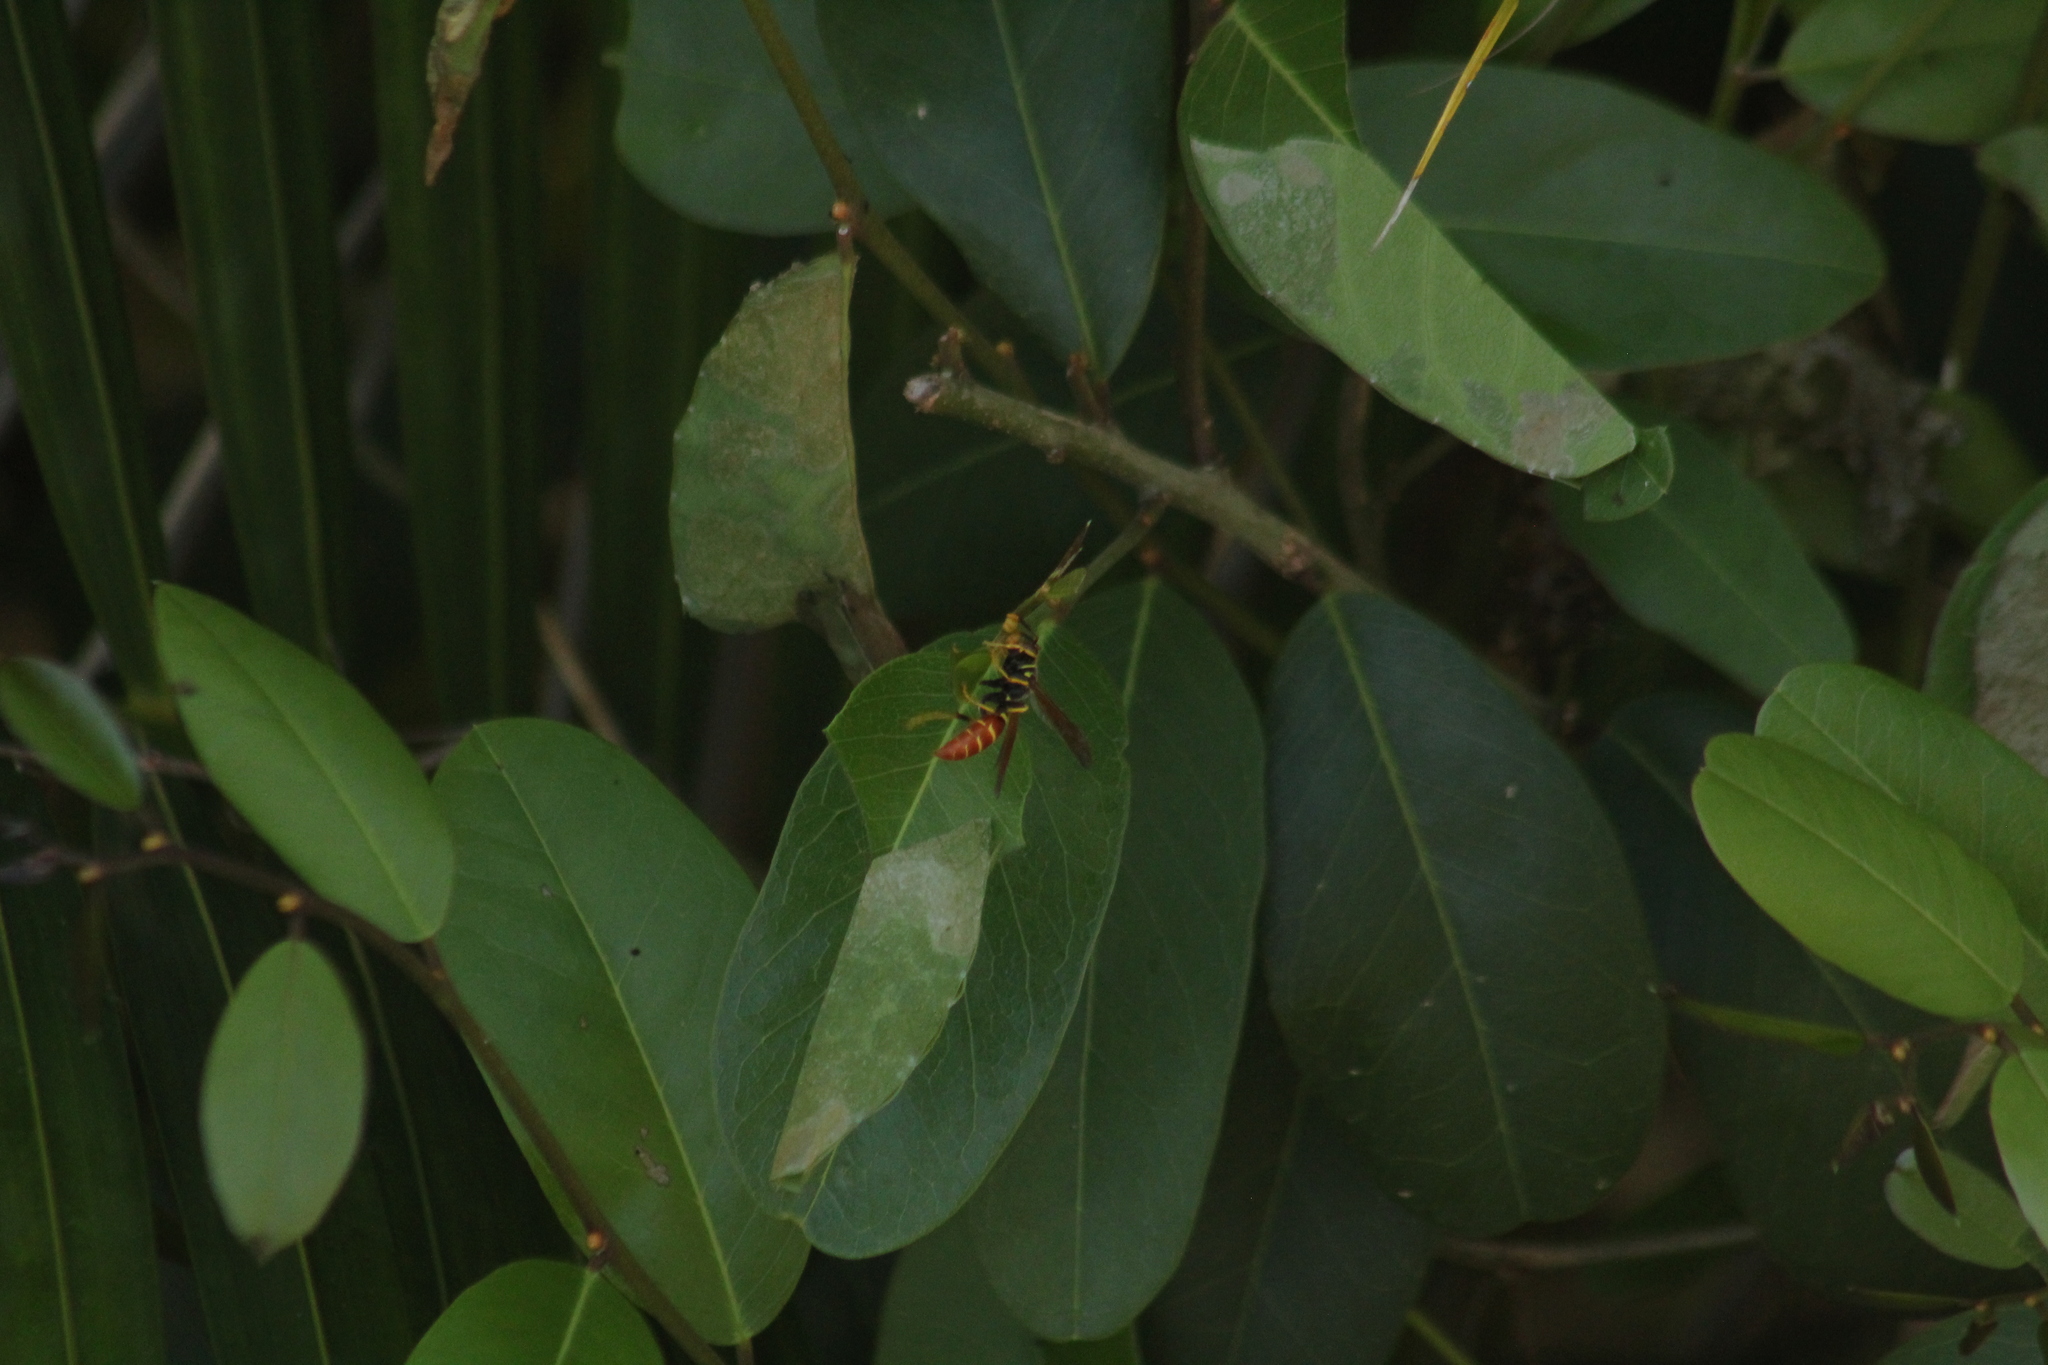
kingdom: Animalia
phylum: Arthropoda
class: Insecta
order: Hymenoptera
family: Eumenidae
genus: Polistes
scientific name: Polistes crinitus
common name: Jack spaniard
